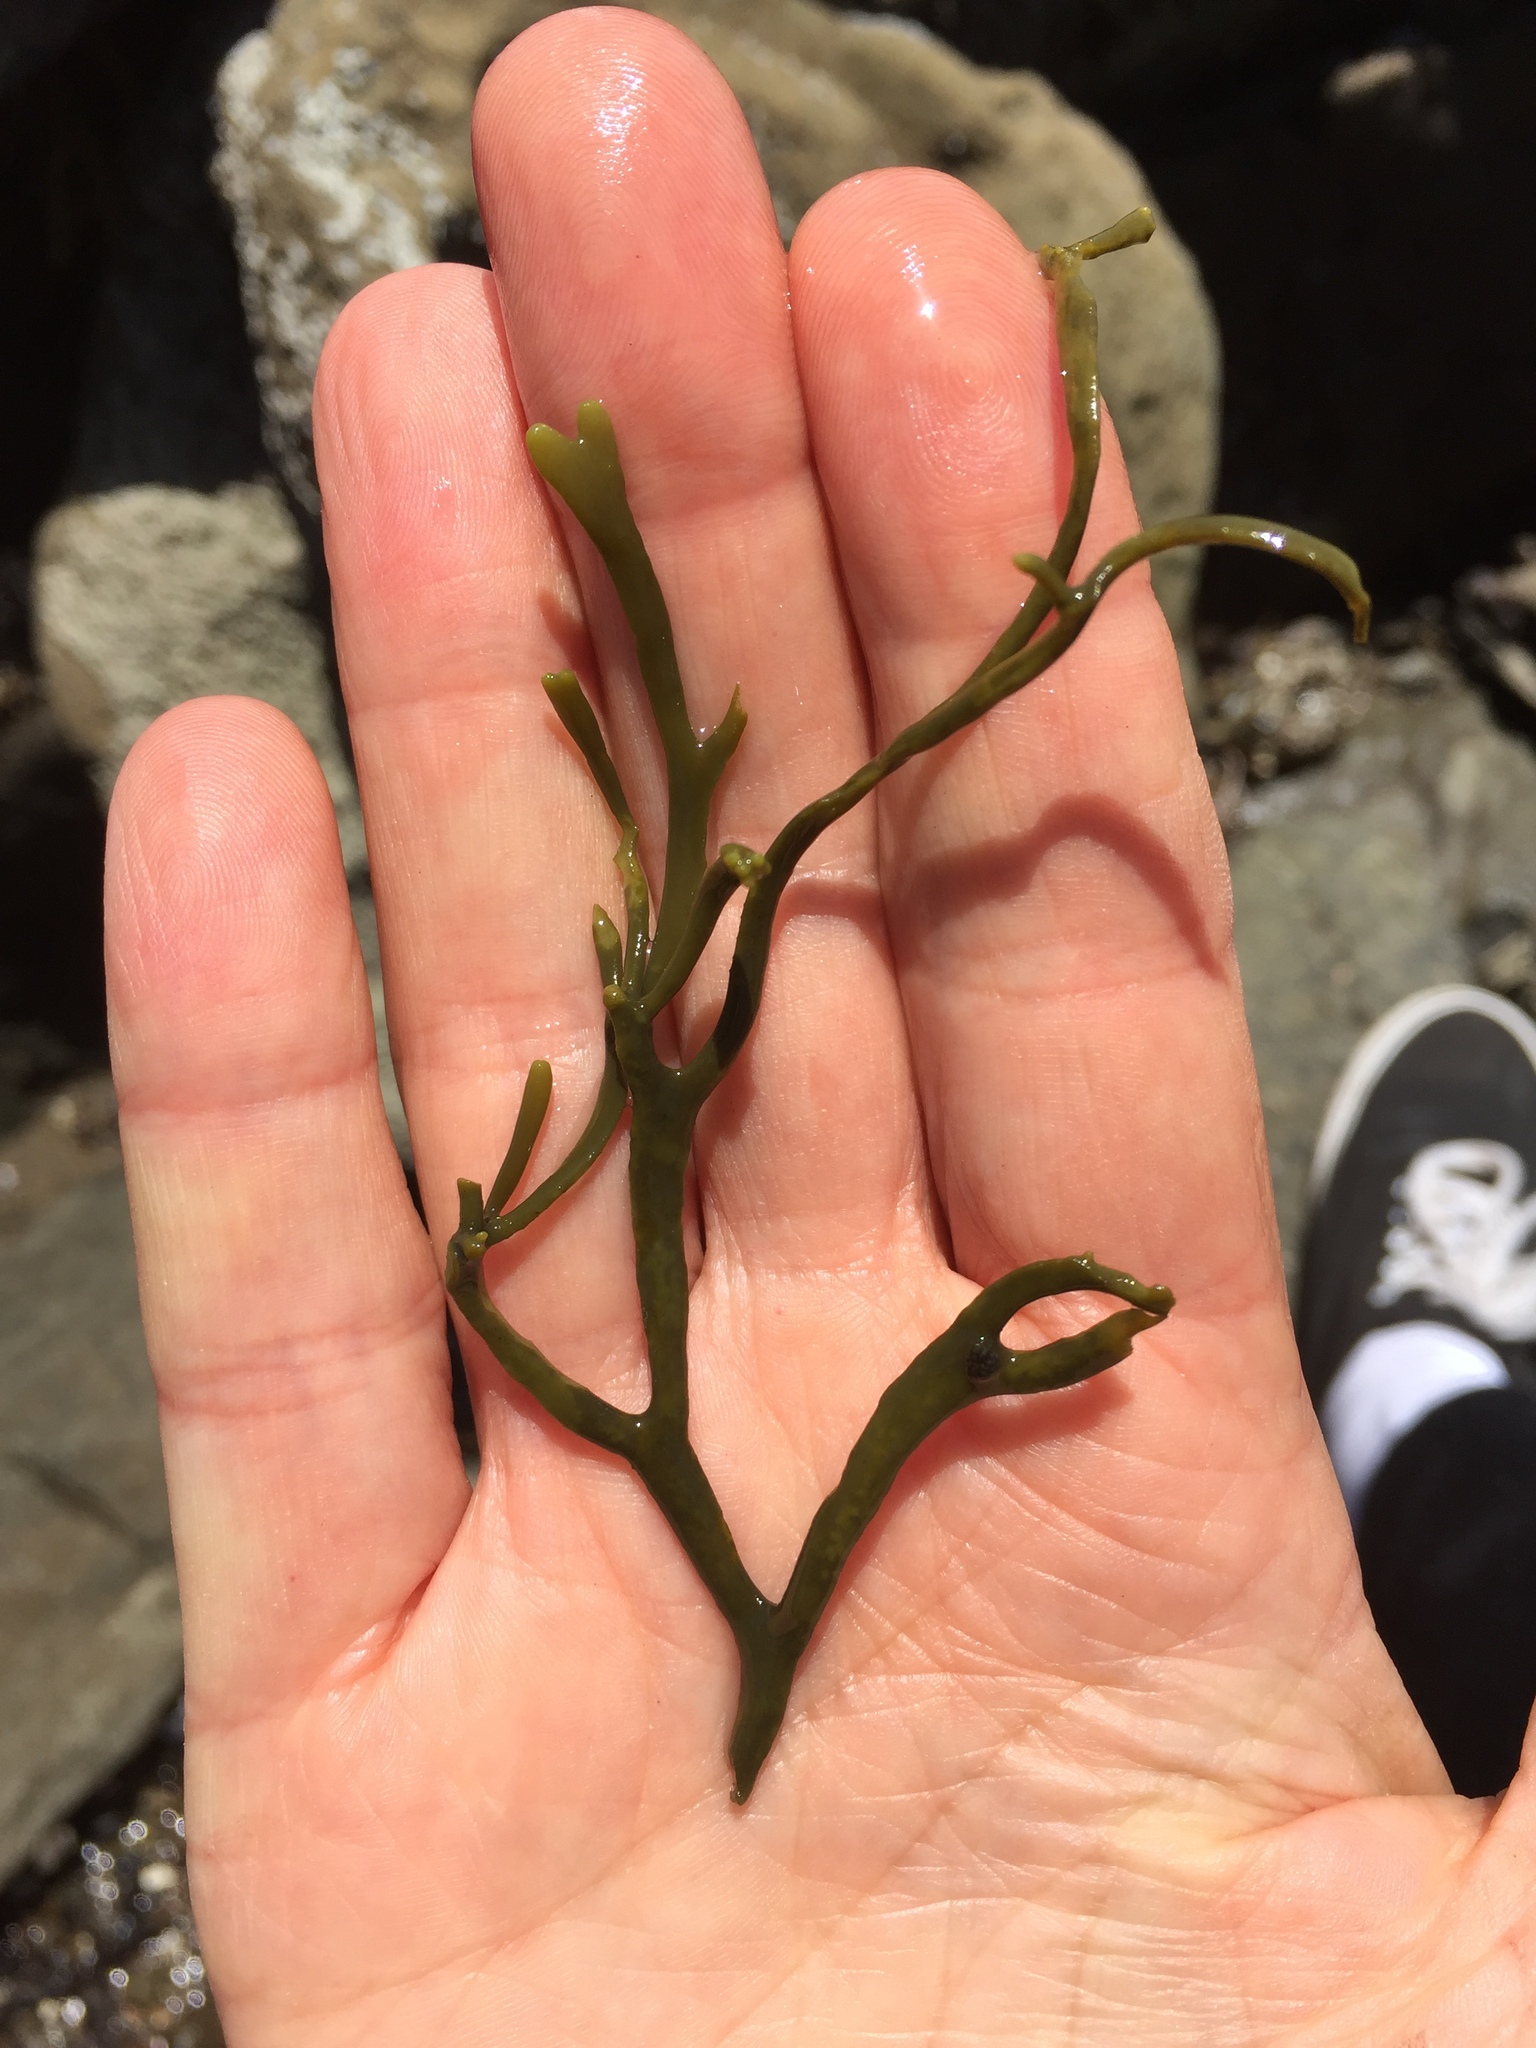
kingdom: Chromista
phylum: Ochrophyta
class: Phaeophyceae
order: Fucales
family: Fucaceae
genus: Silvetia
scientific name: Silvetia
